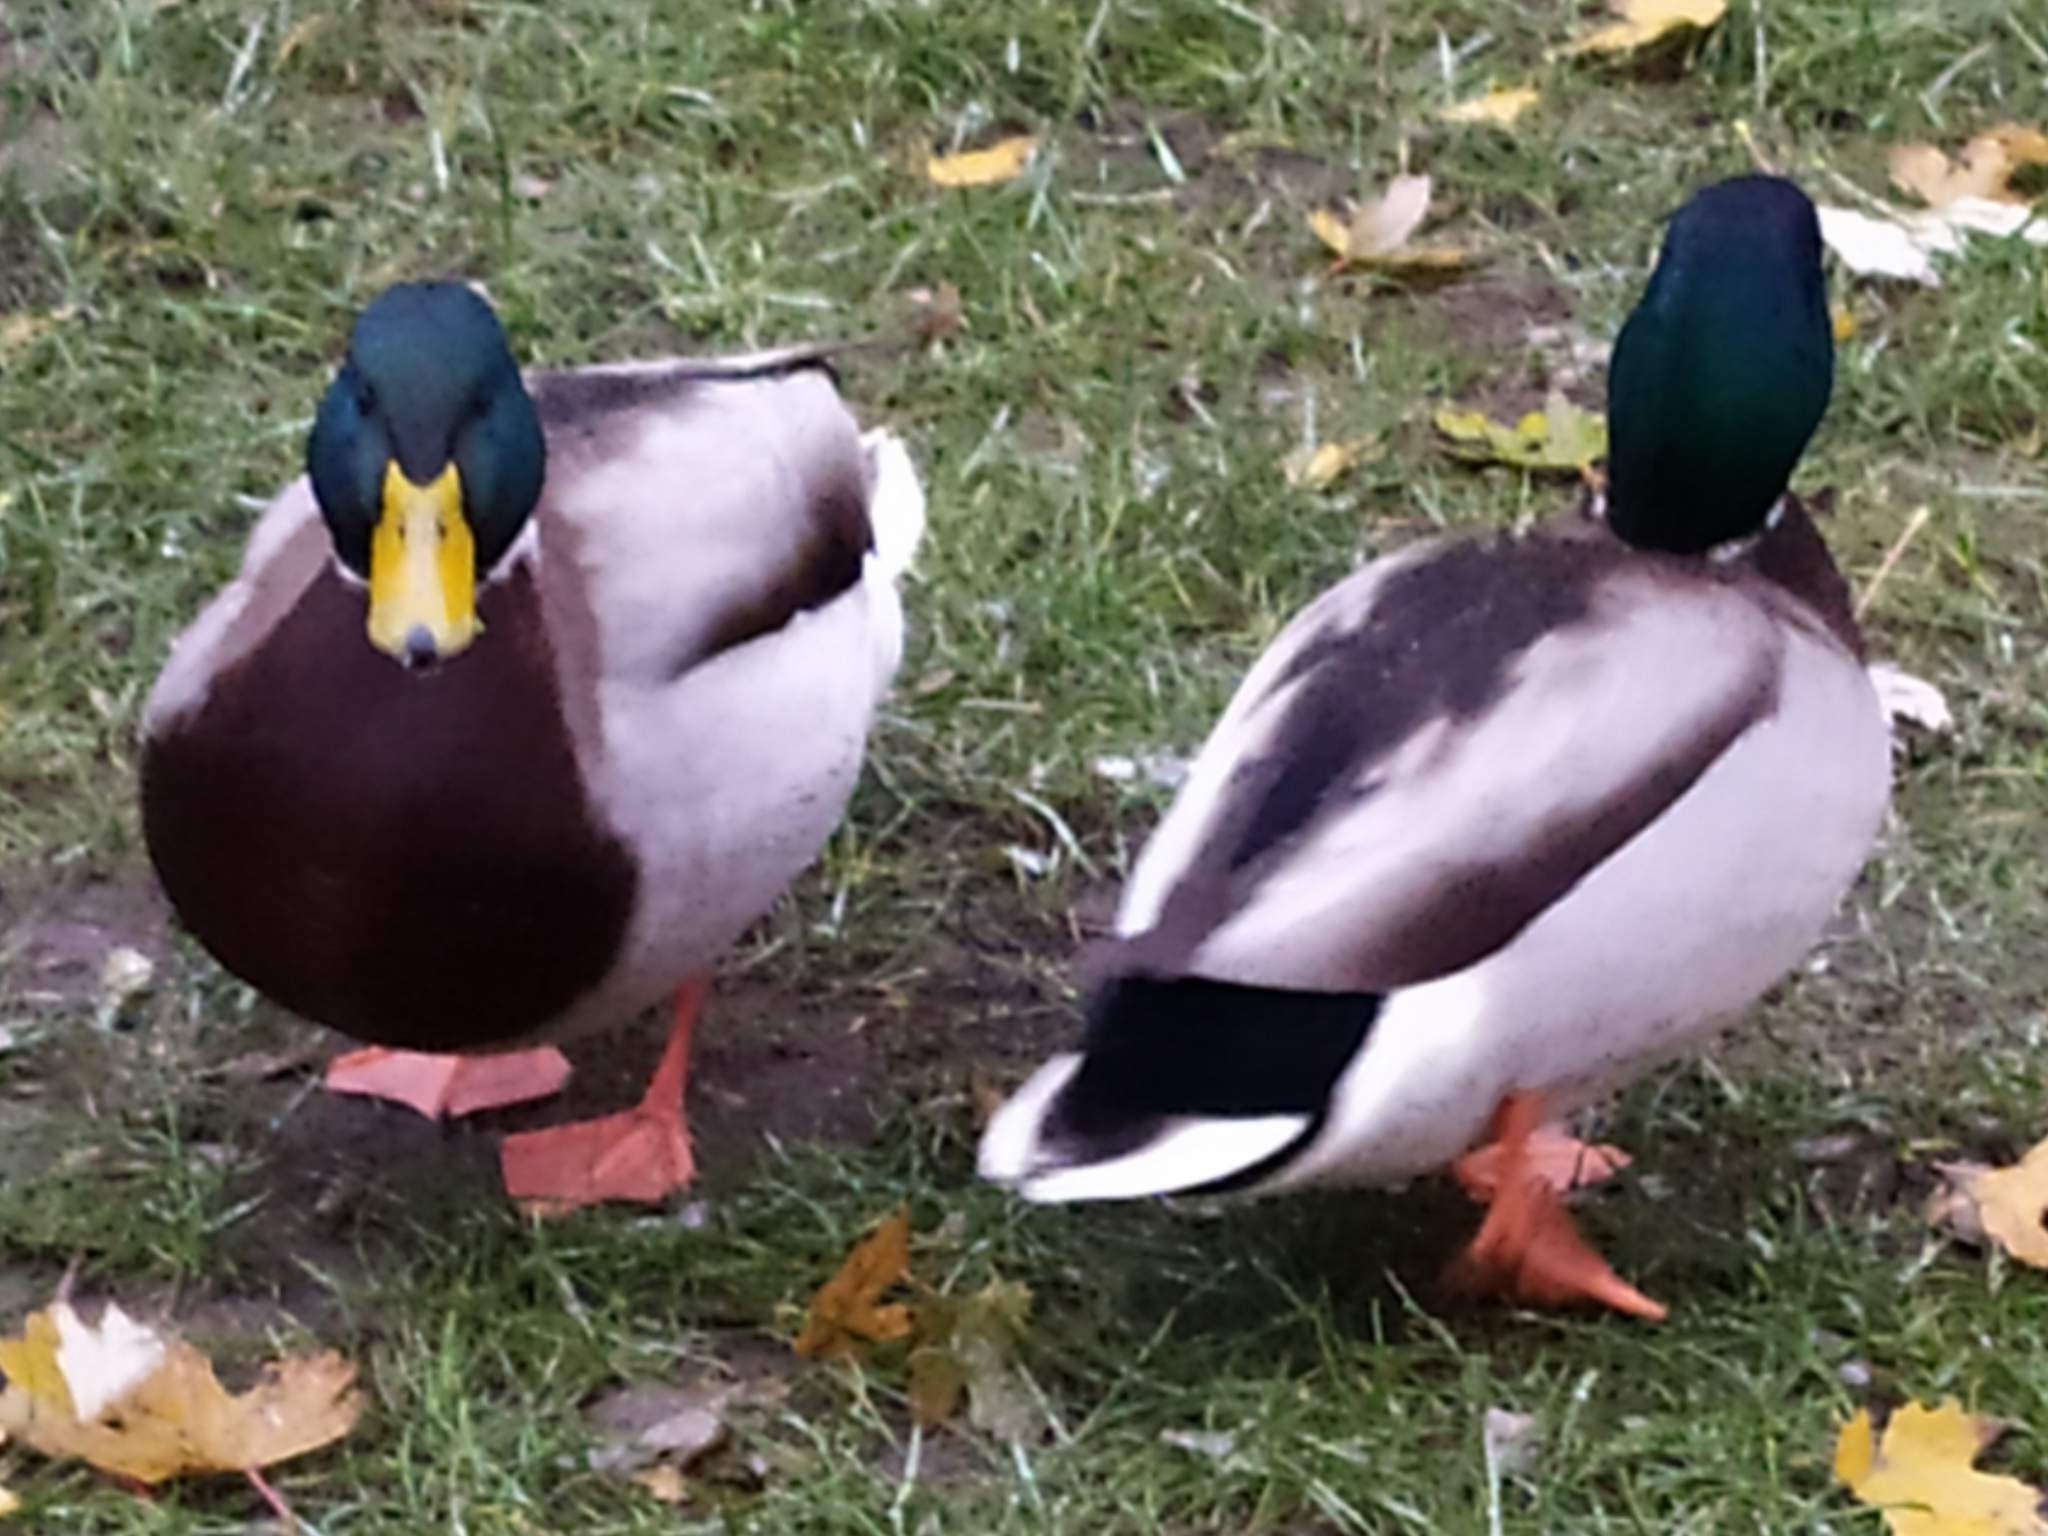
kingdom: Animalia
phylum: Chordata
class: Aves
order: Anseriformes
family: Anatidae
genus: Anas
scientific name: Anas platyrhynchos
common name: Mallard
